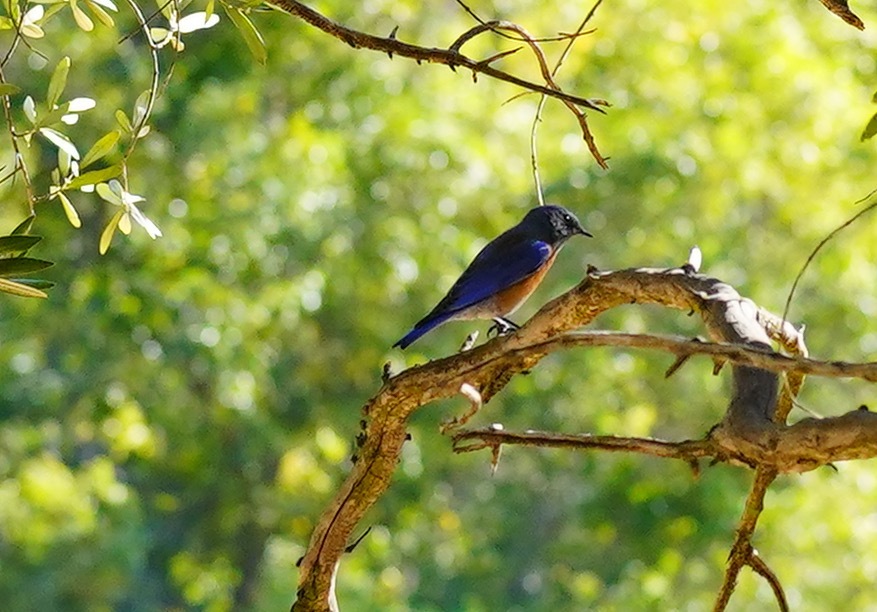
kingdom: Animalia
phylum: Chordata
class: Aves
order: Passeriformes
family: Turdidae
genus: Sialia
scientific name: Sialia mexicana
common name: Western bluebird
